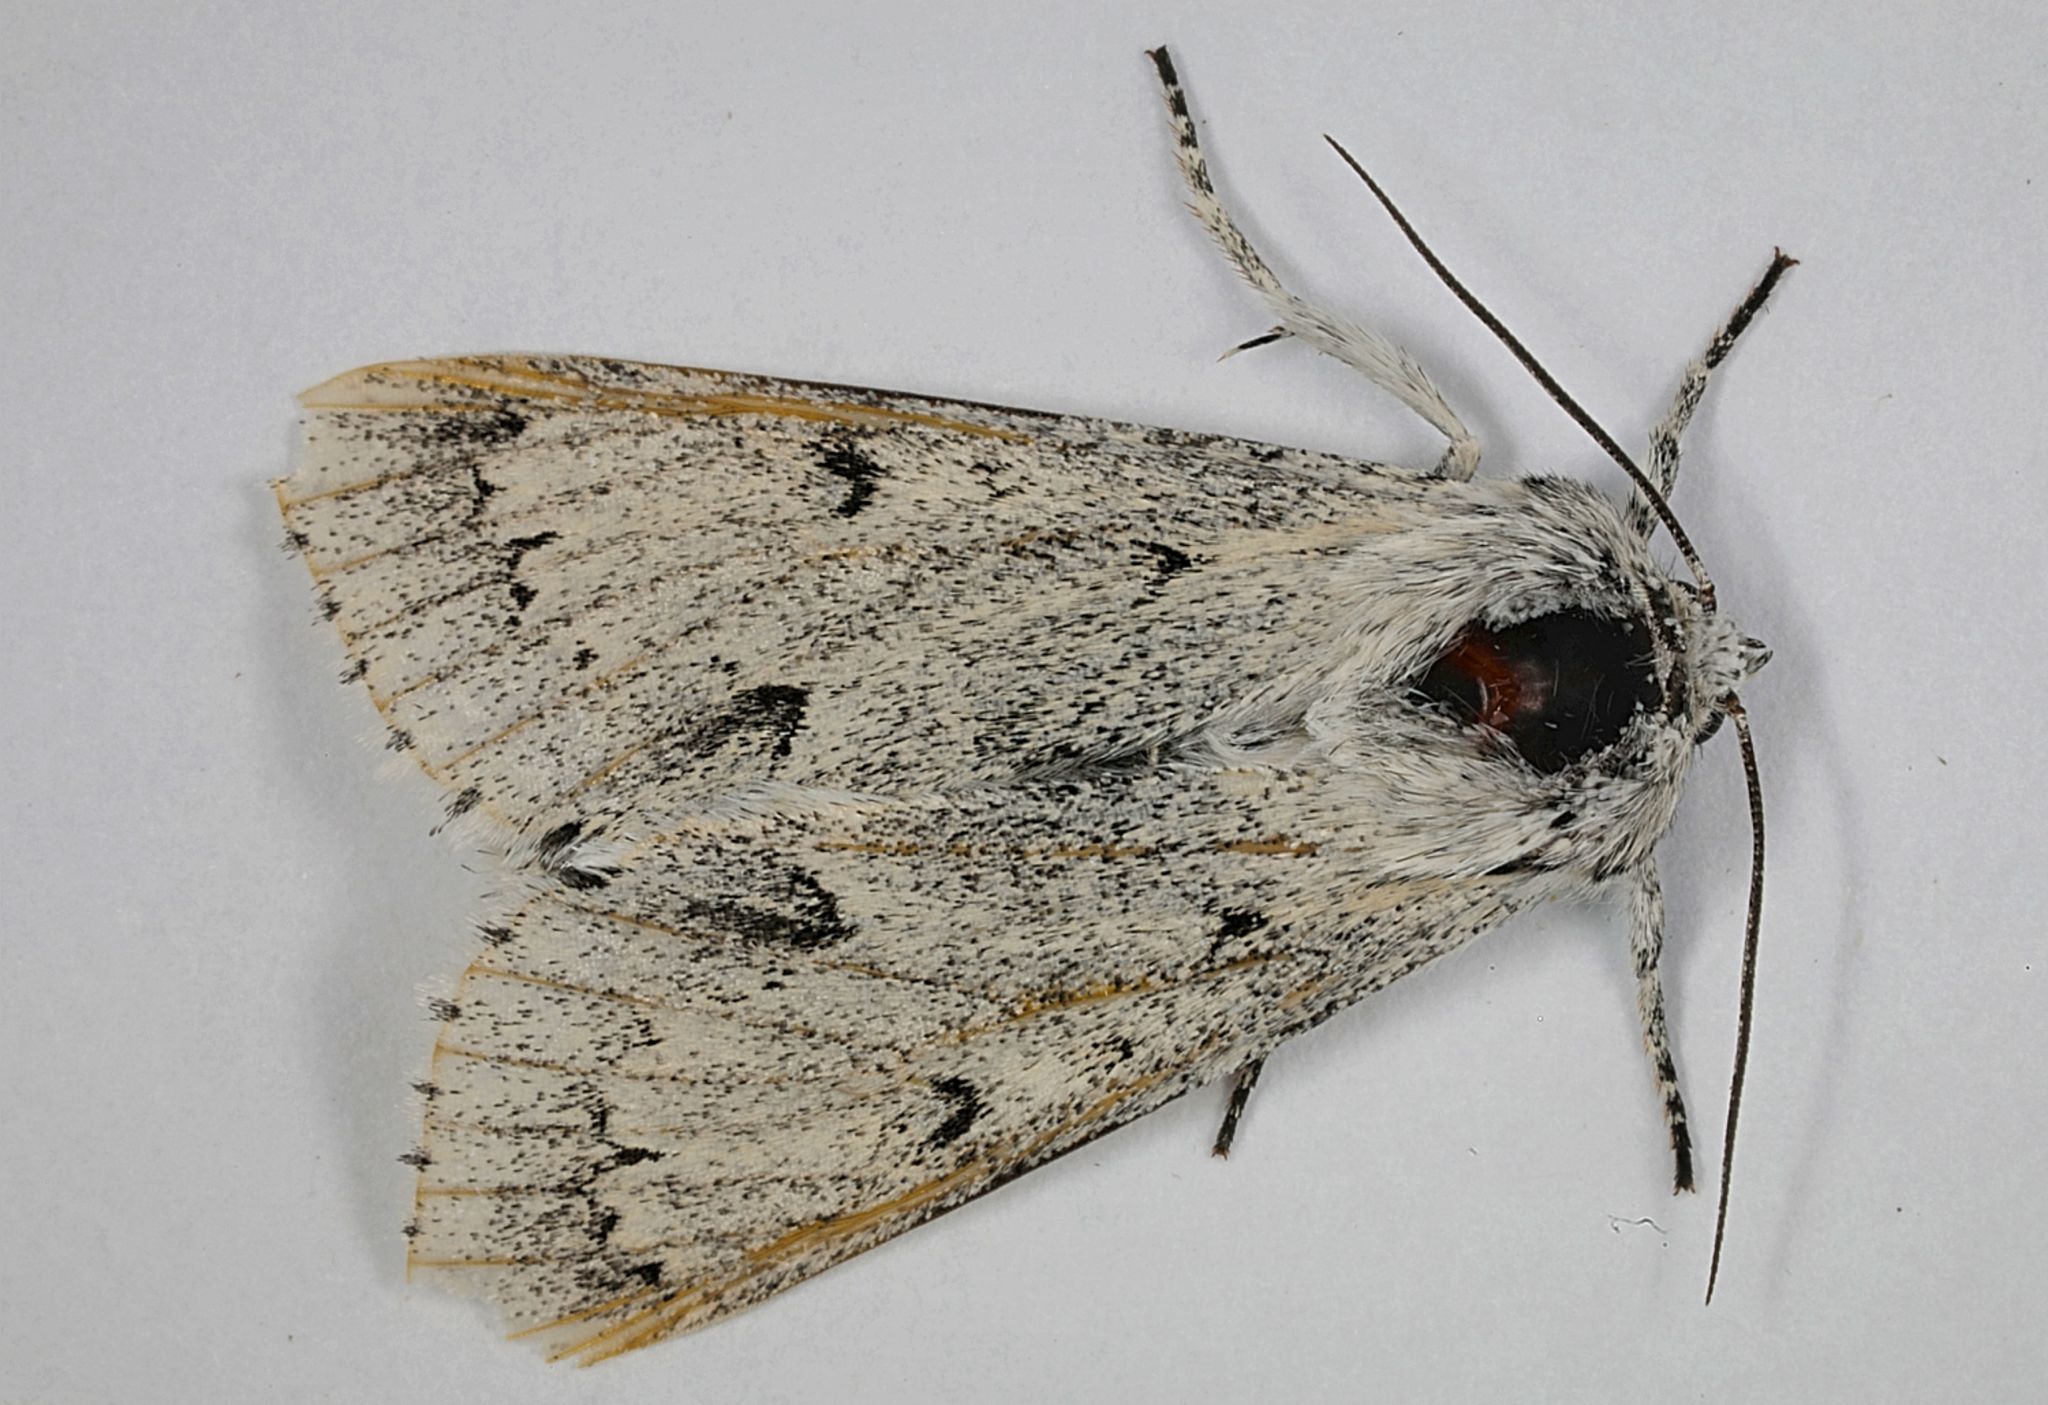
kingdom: Animalia
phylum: Arthropoda
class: Insecta
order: Lepidoptera
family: Noctuidae
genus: Acronicta
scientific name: Acronicta leporina
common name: Miller
